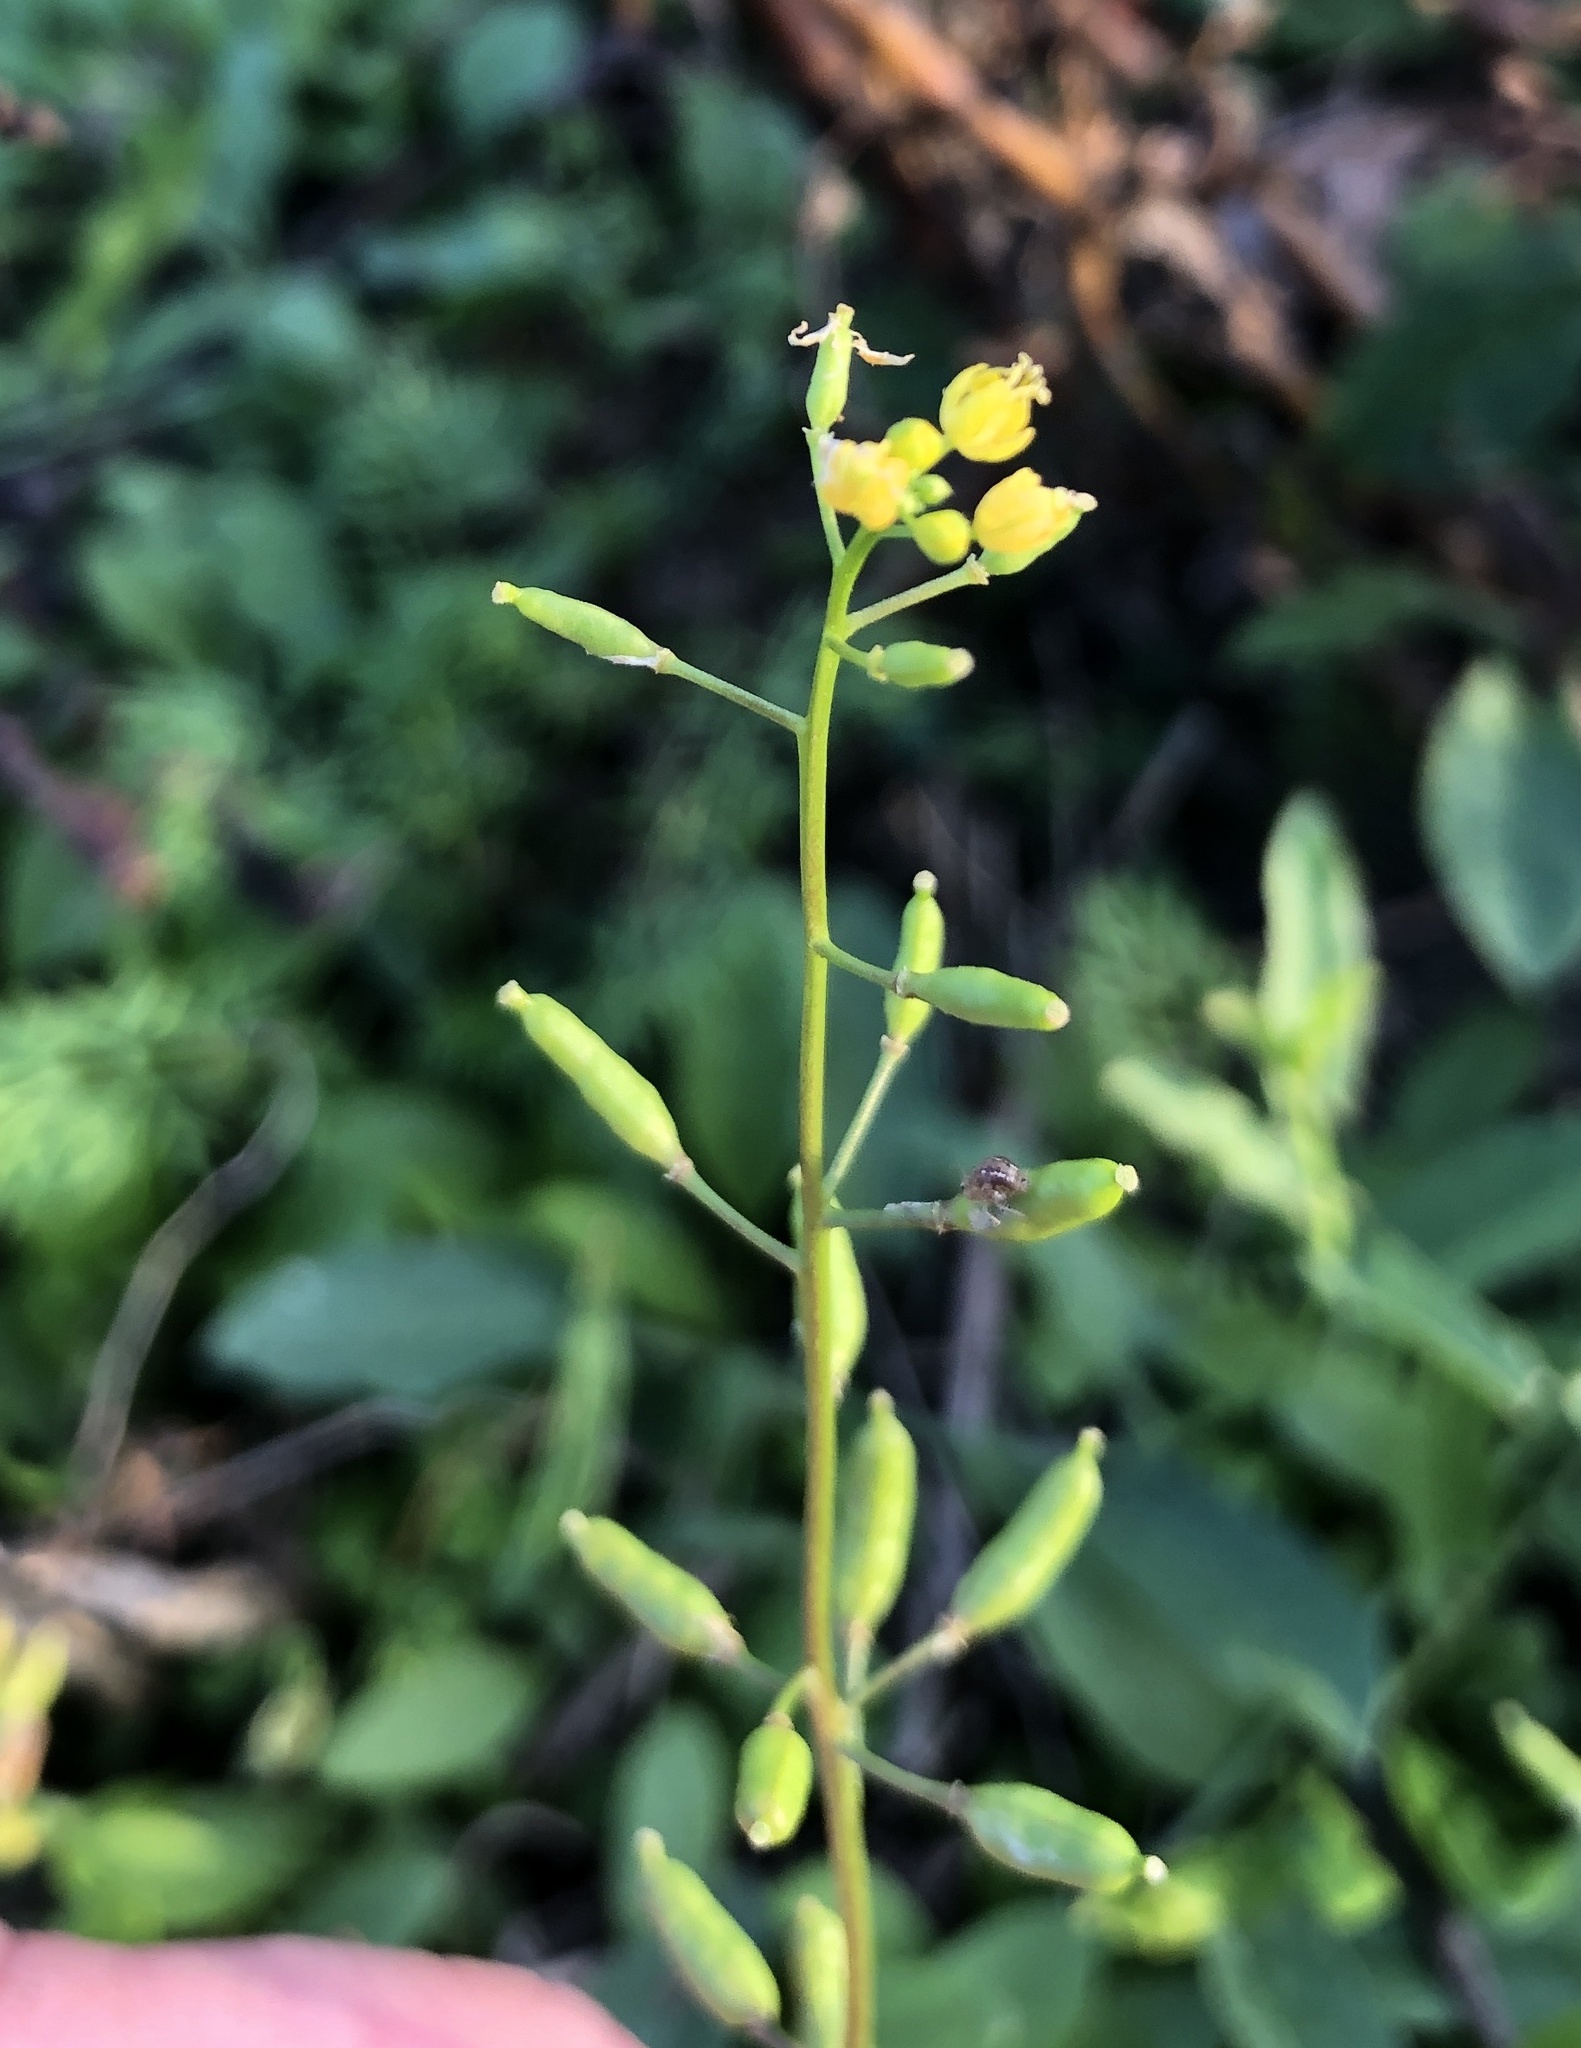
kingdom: Plantae
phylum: Tracheophyta
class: Magnoliopsida
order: Brassicales
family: Brassicaceae
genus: Rorippa
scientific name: Rorippa palustris
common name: Marsh yellow-cress
